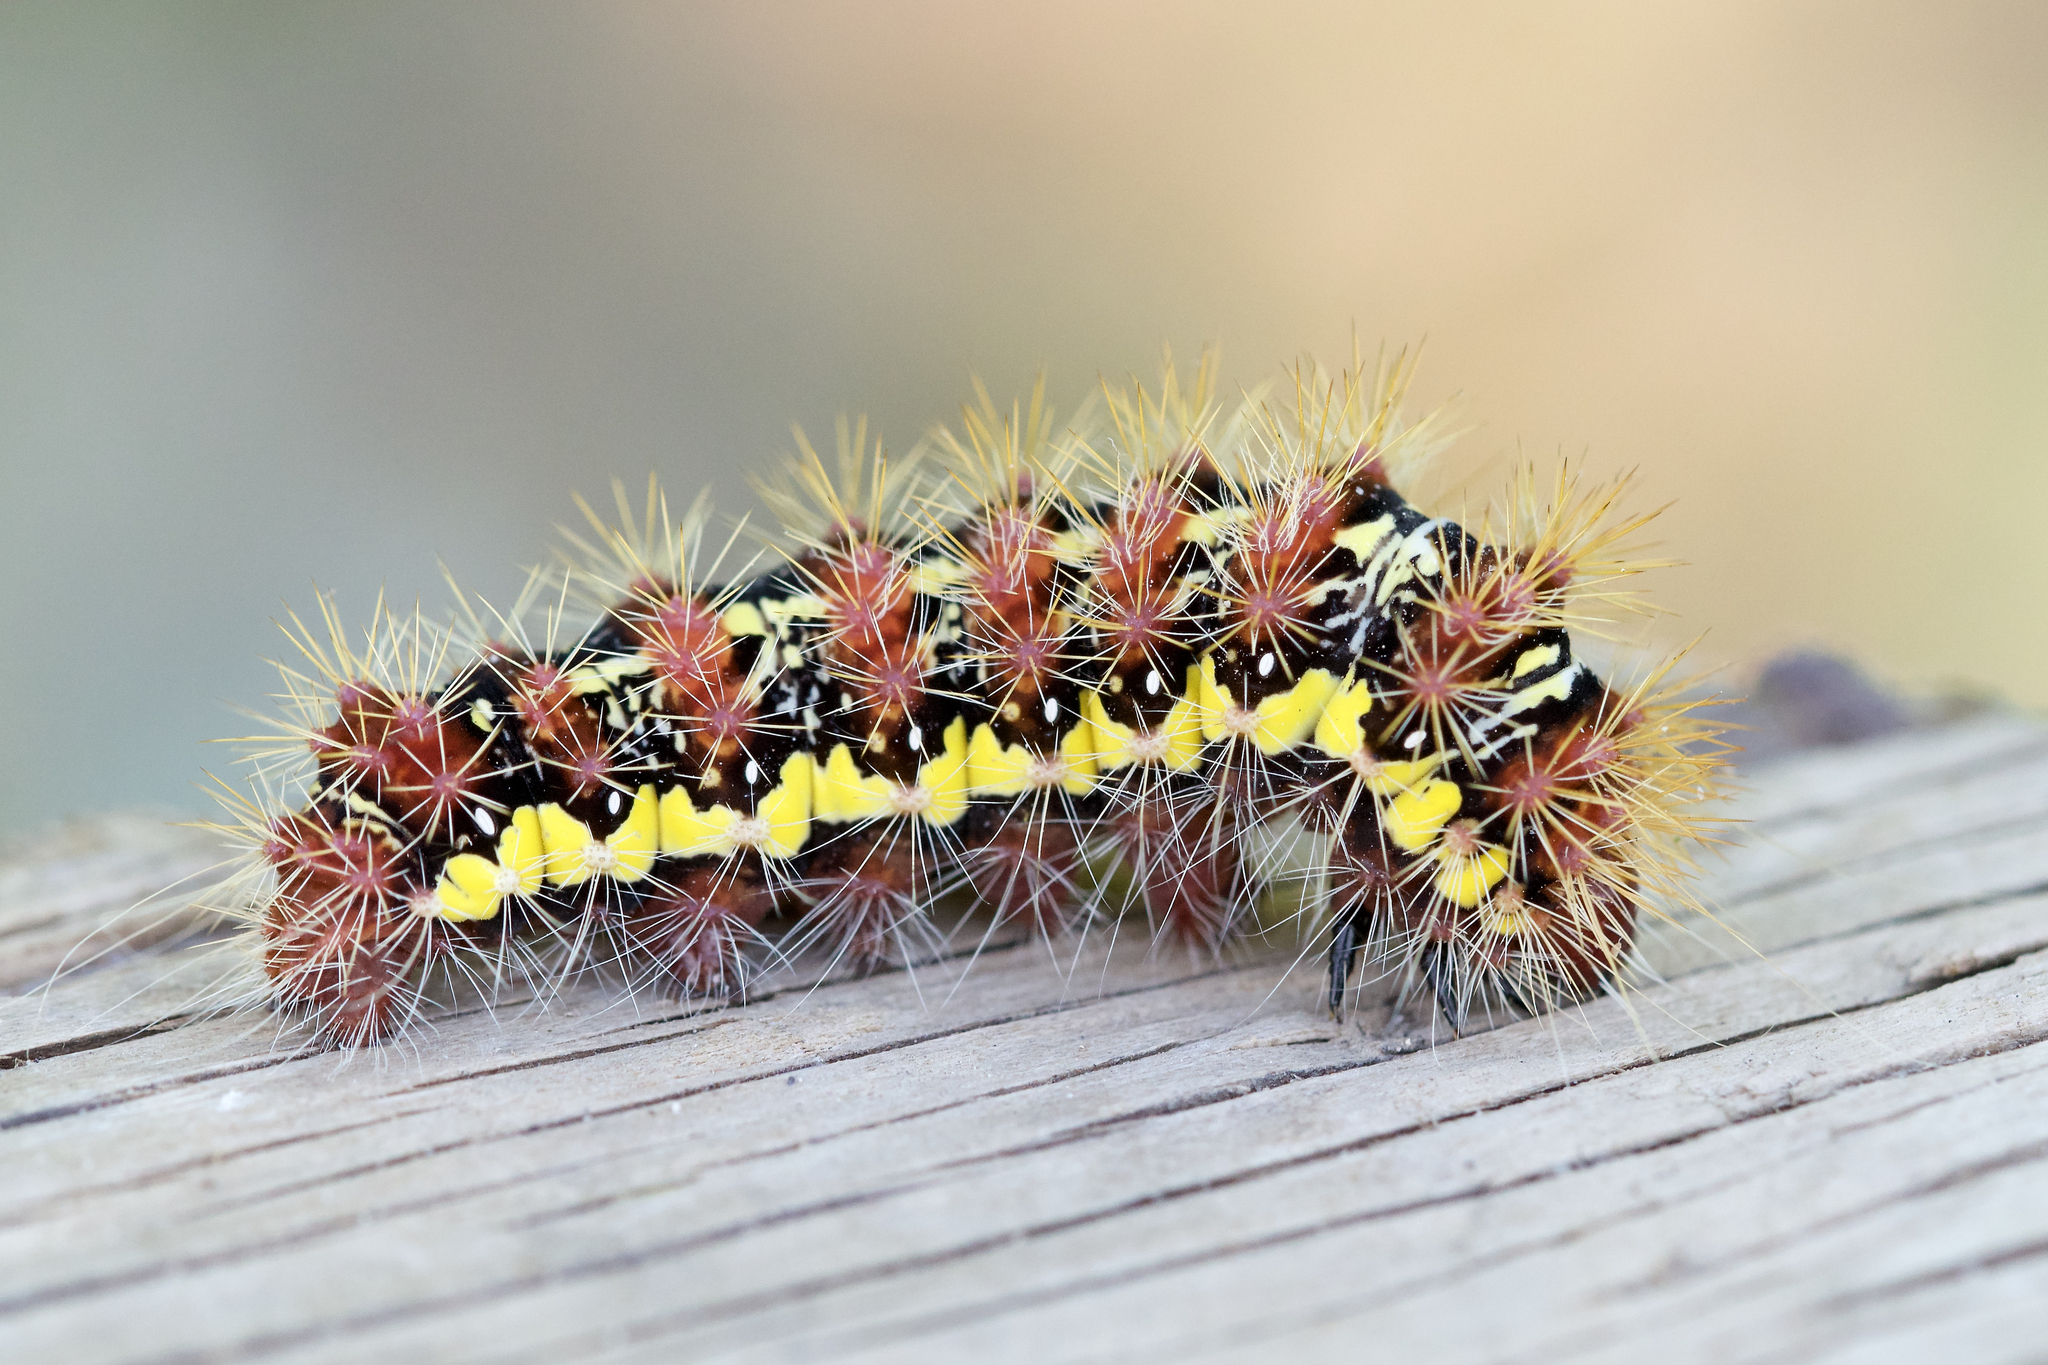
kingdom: Animalia
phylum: Arthropoda
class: Insecta
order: Lepidoptera
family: Noctuidae
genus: Acronicta
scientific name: Acronicta oblinita
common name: Smeared dagger
